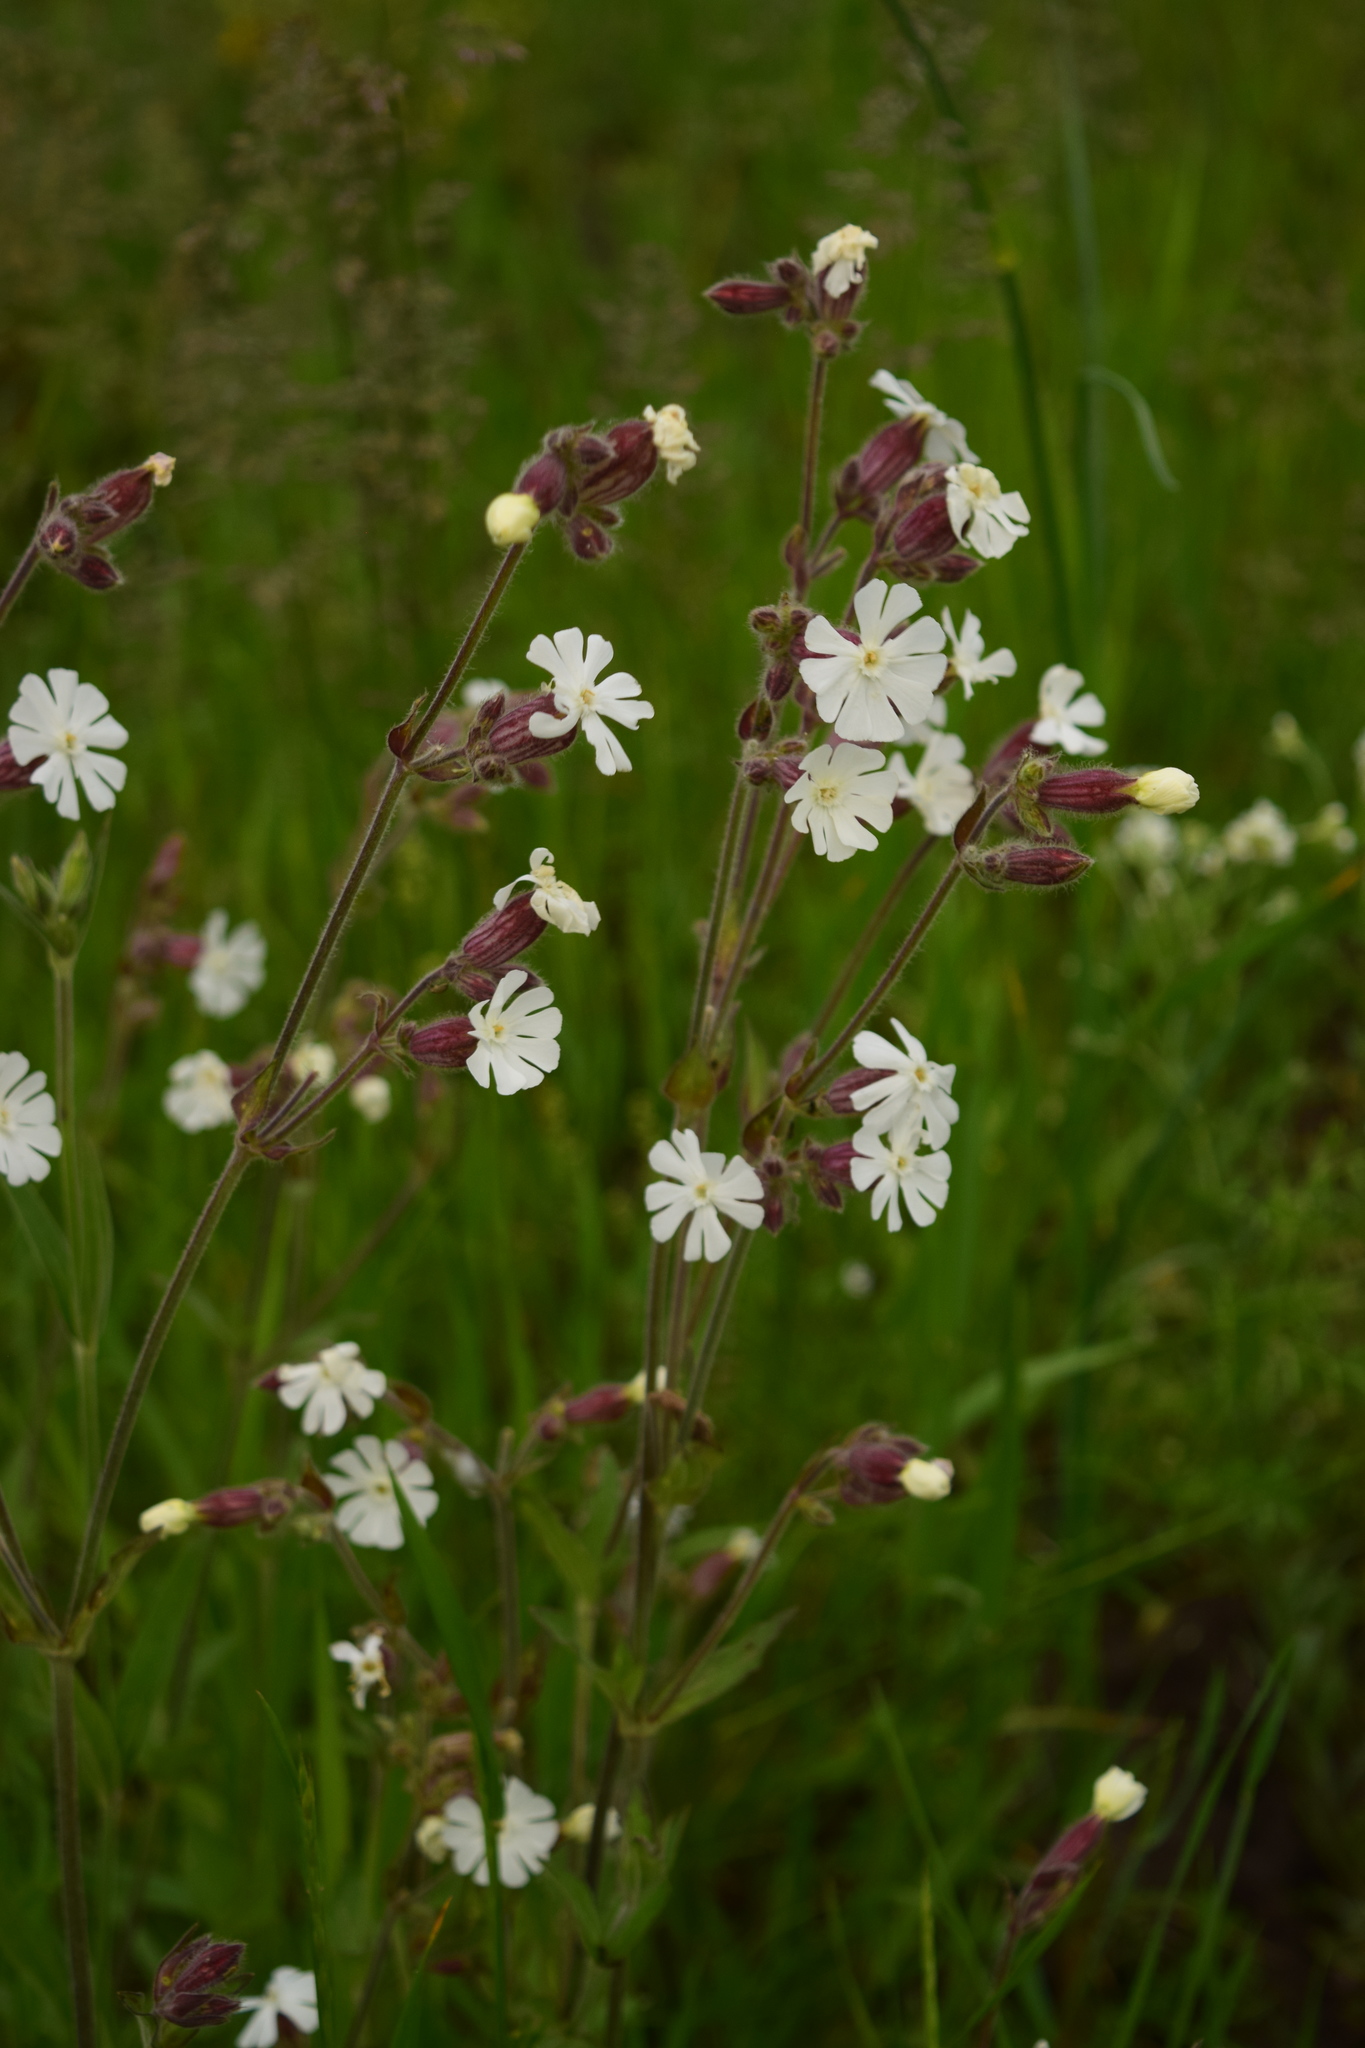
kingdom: Plantae
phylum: Tracheophyta
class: Magnoliopsida
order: Caryophyllales
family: Caryophyllaceae
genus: Silene
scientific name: Silene latifolia
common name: White campion
